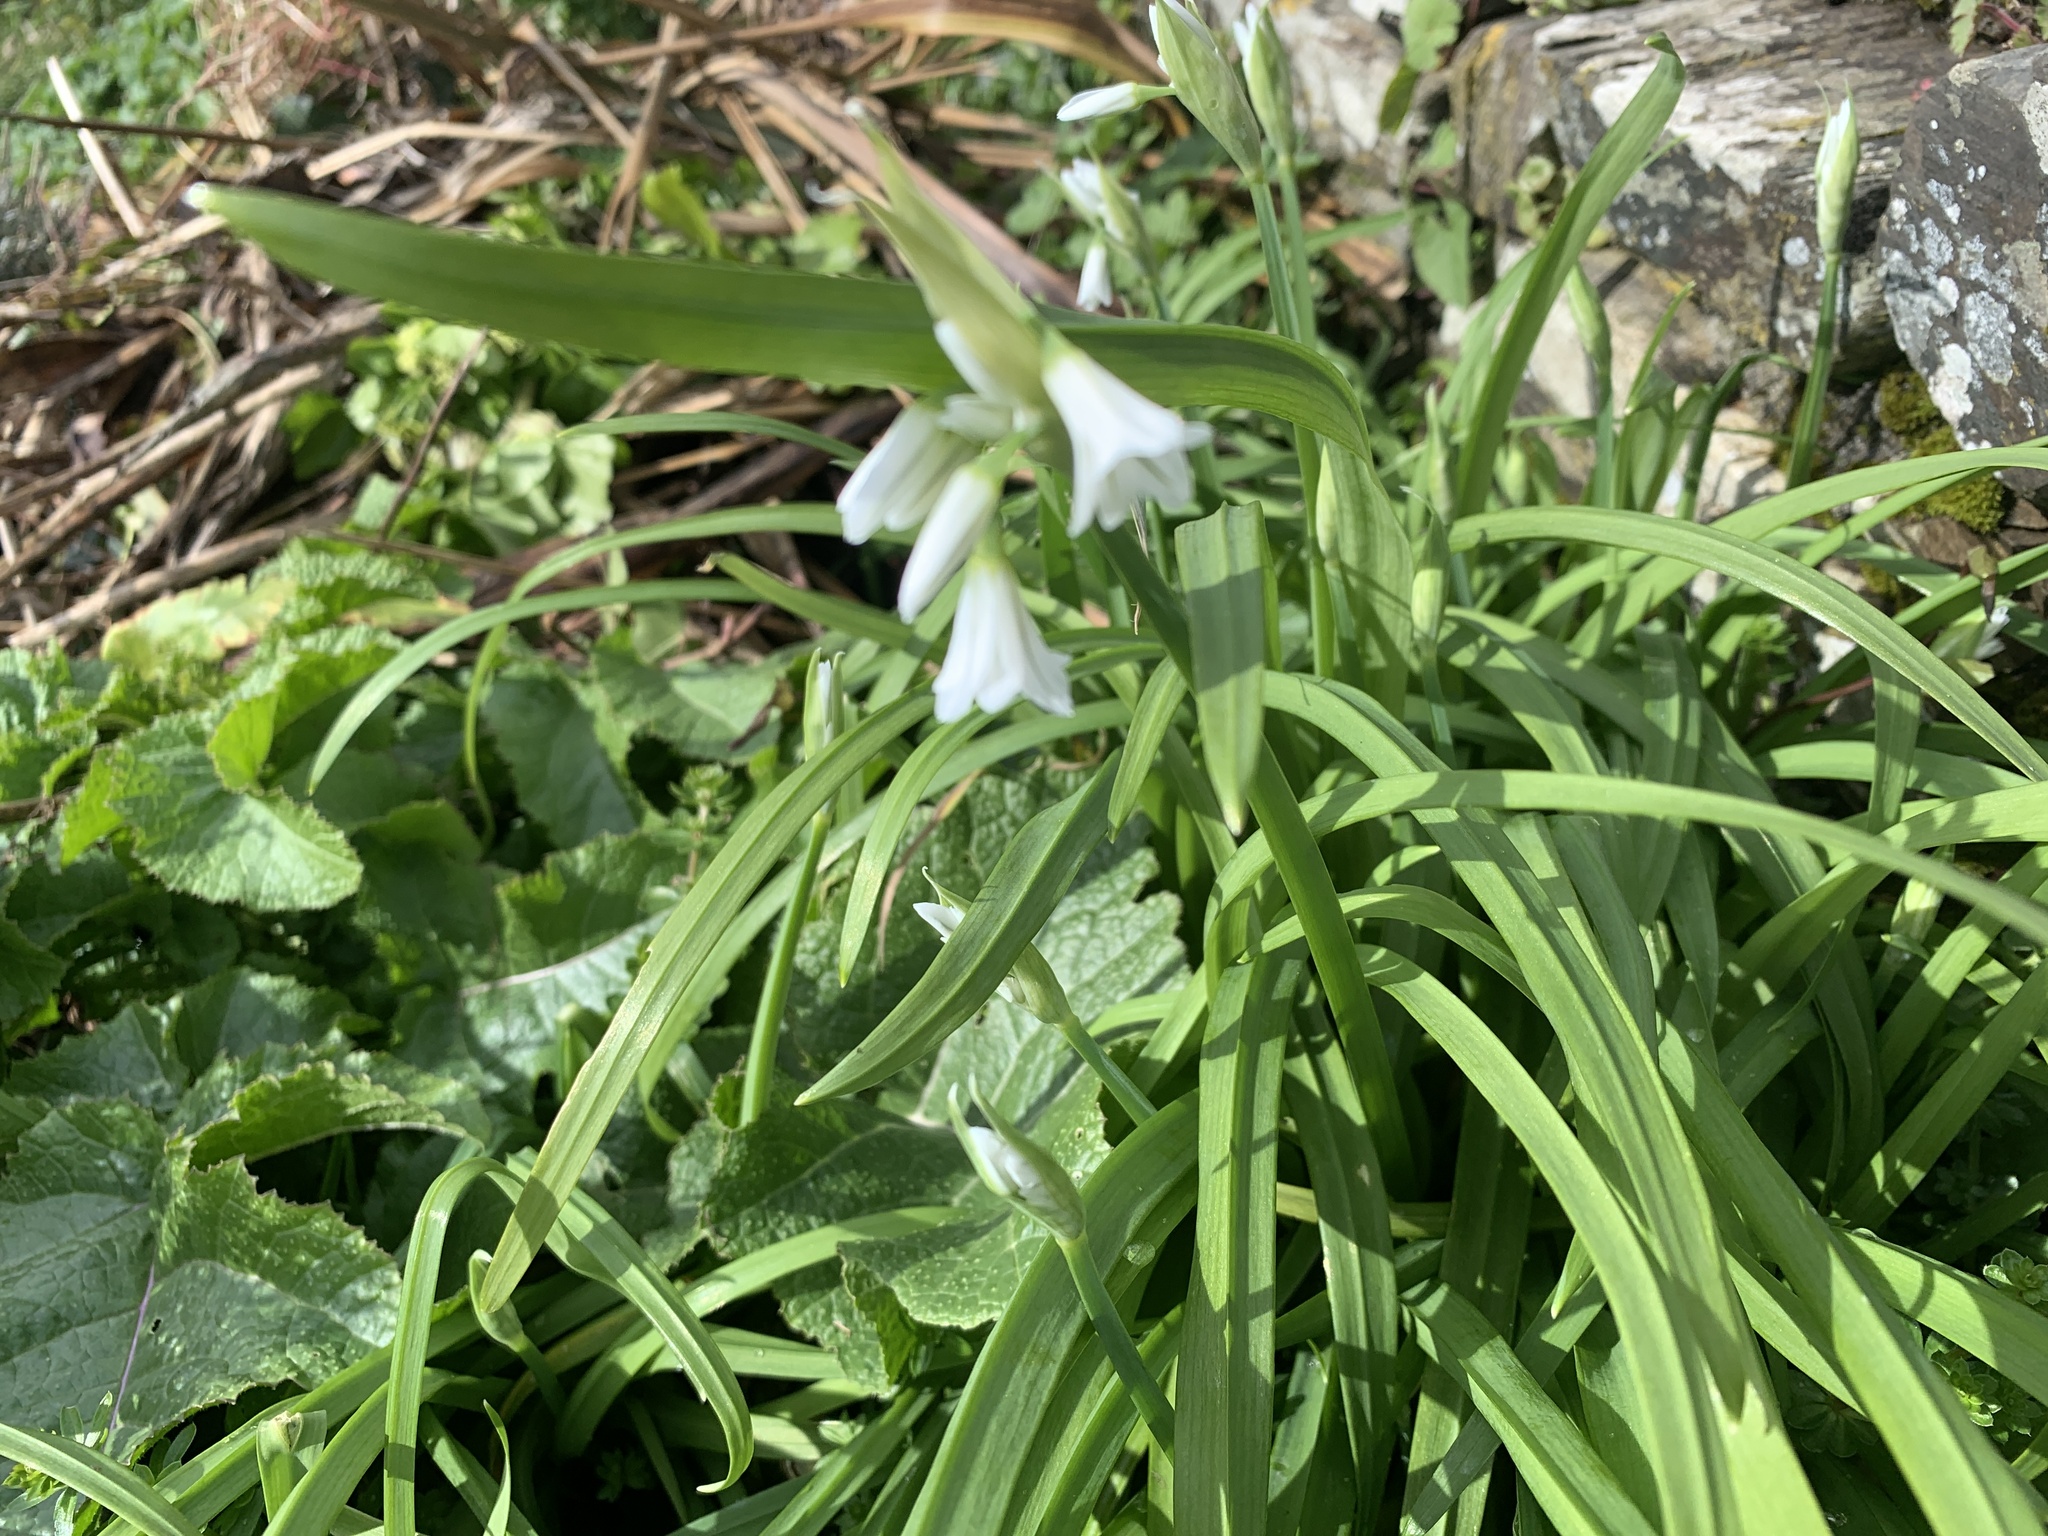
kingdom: Plantae
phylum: Tracheophyta
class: Liliopsida
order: Asparagales
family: Amaryllidaceae
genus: Allium
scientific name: Allium triquetrum
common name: Three-cornered garlic
